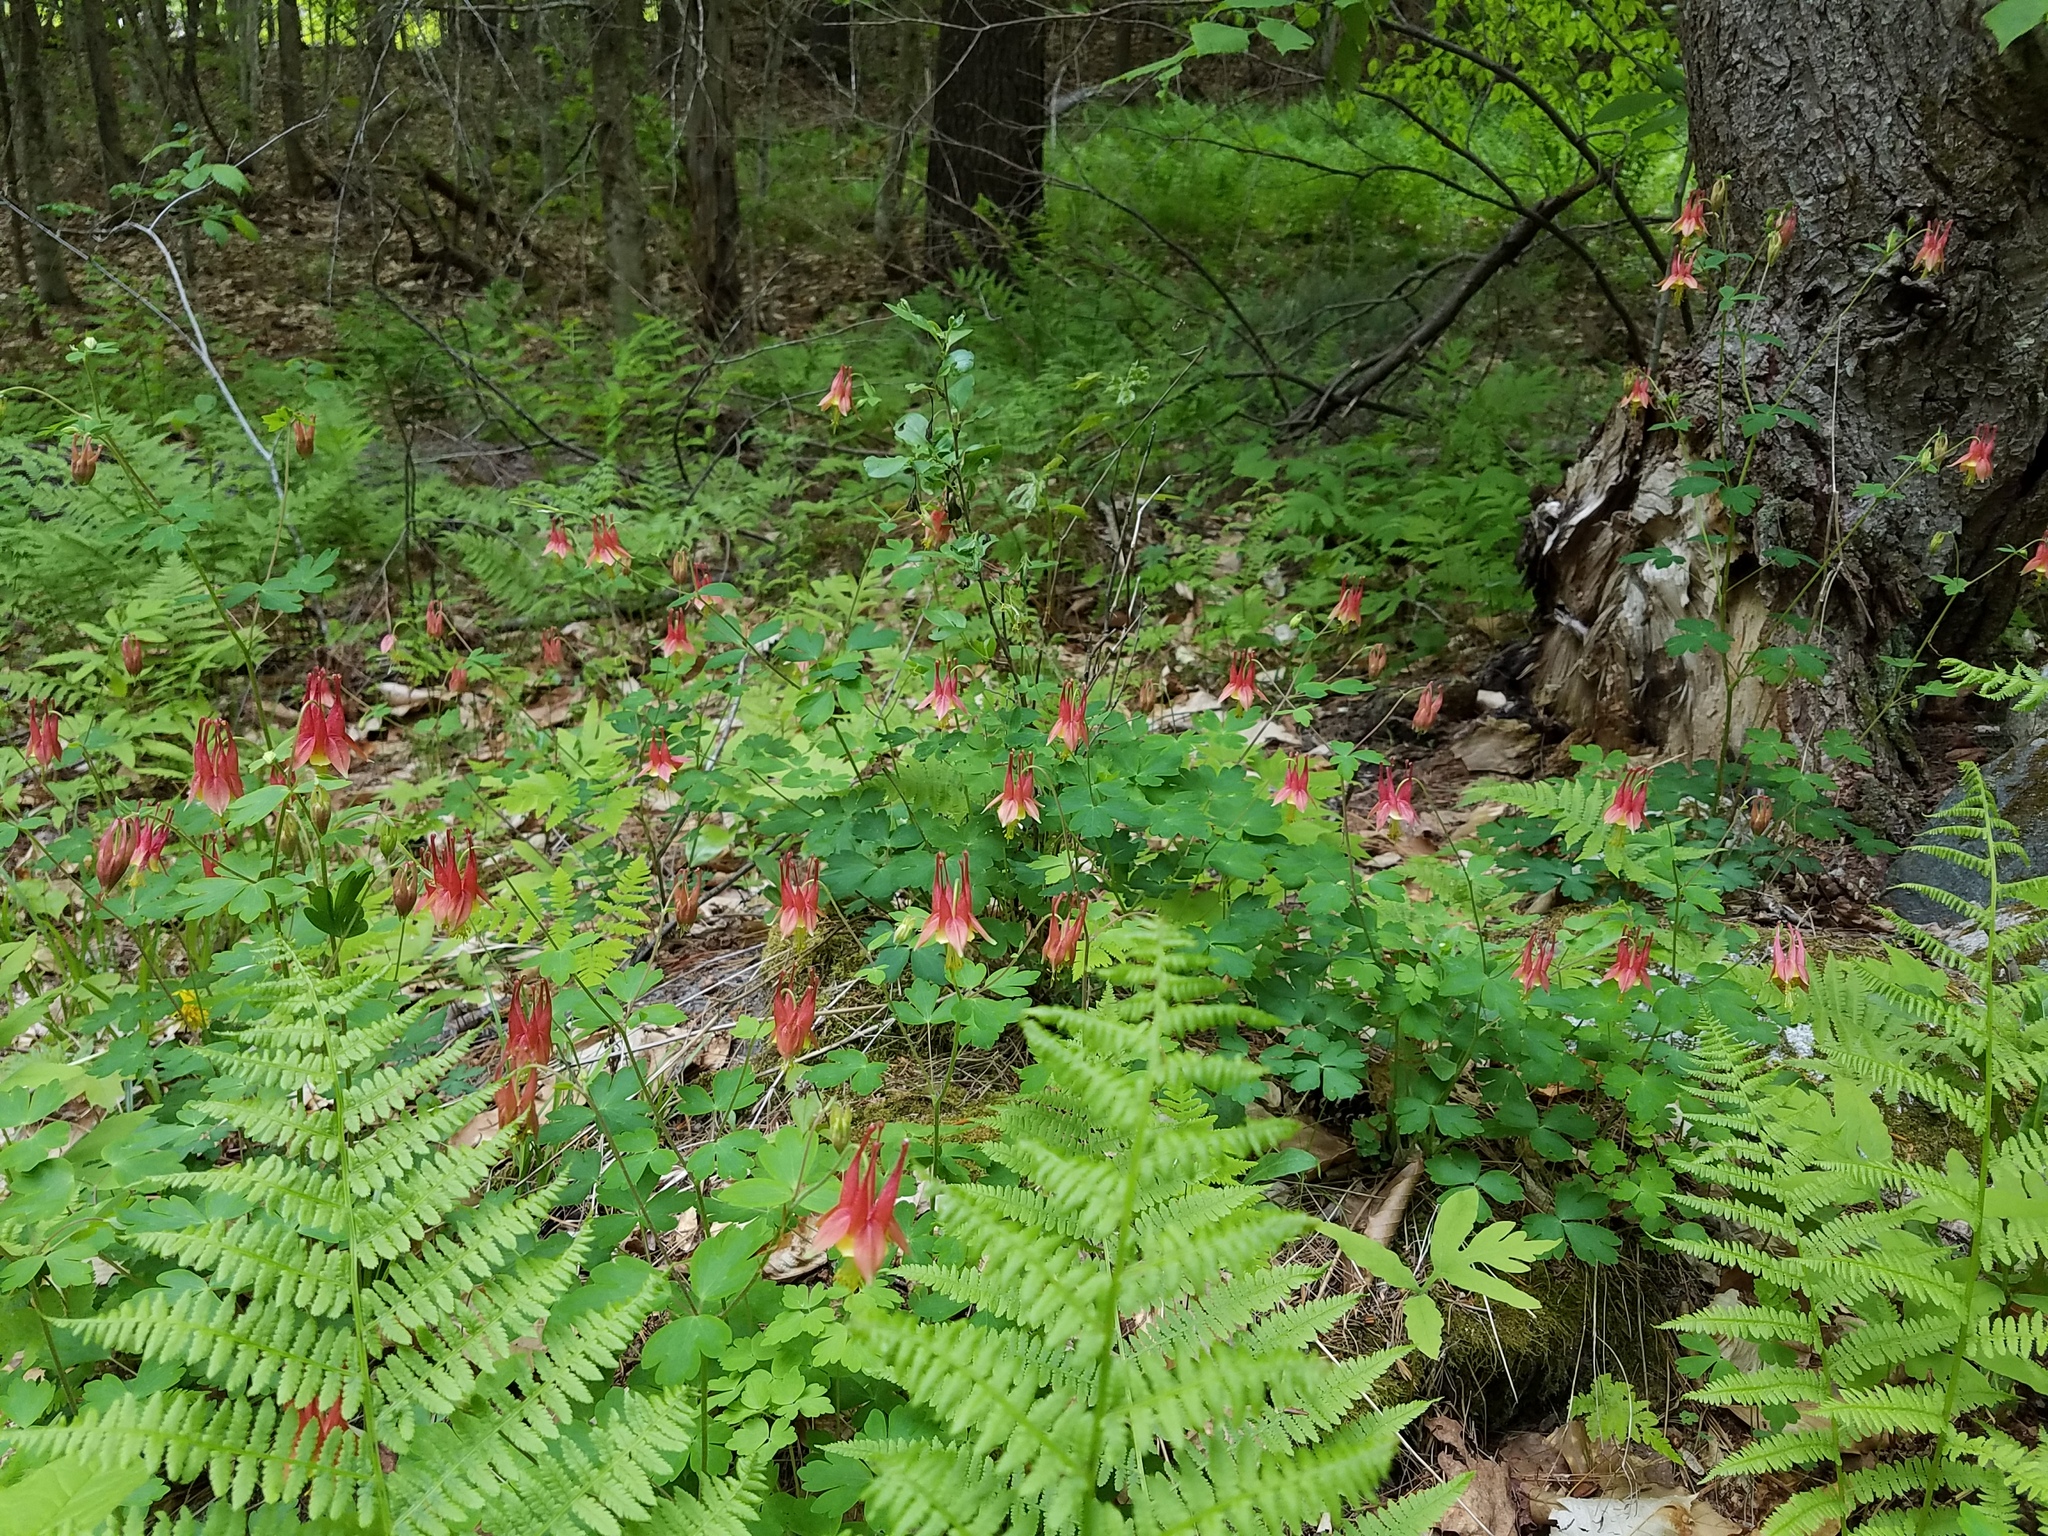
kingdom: Plantae
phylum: Tracheophyta
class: Magnoliopsida
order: Ranunculales
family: Ranunculaceae
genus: Aquilegia
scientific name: Aquilegia canadensis
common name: American columbine
